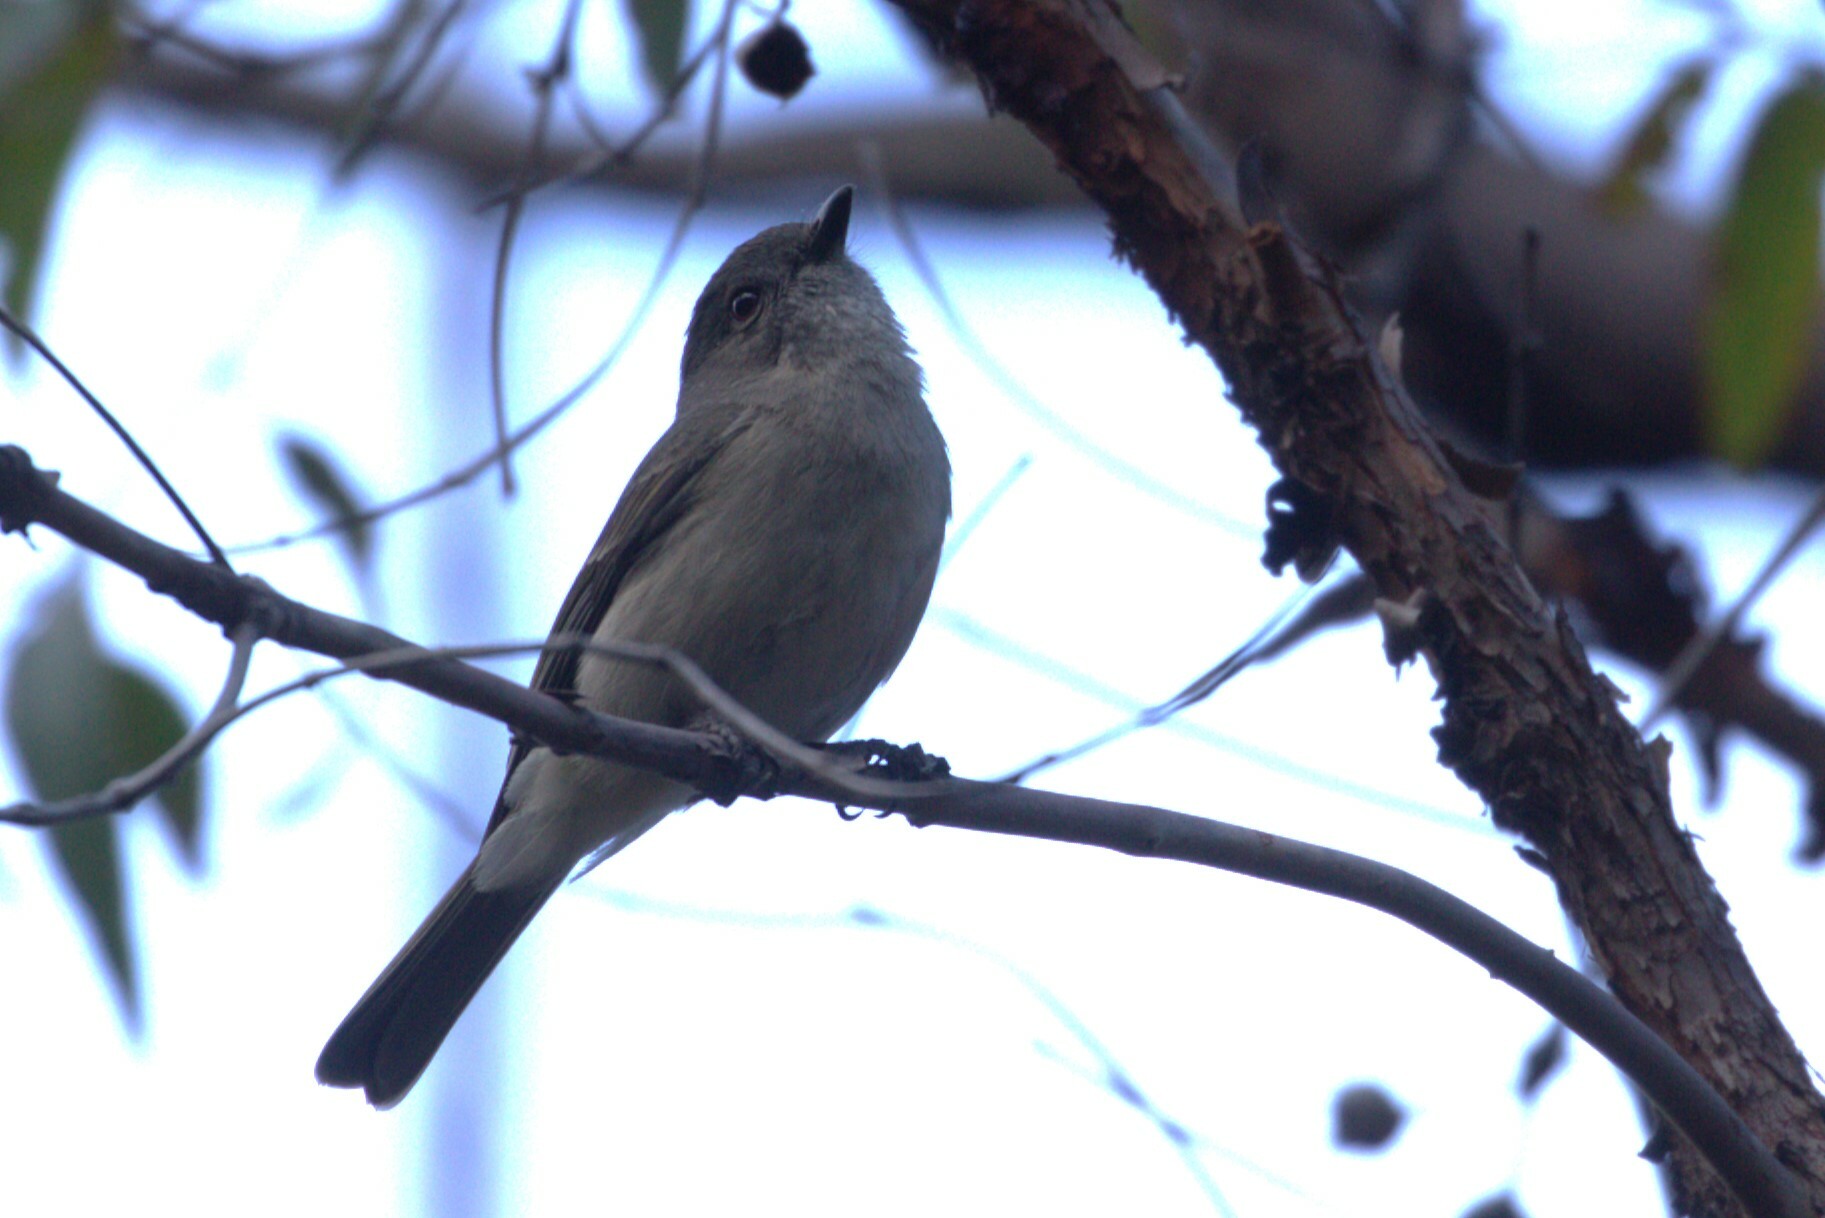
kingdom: Animalia
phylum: Chordata
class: Aves
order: Passeriformes
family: Pachycephalidae
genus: Pachycephala
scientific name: Pachycephala pectoralis
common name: Australian golden whistler
